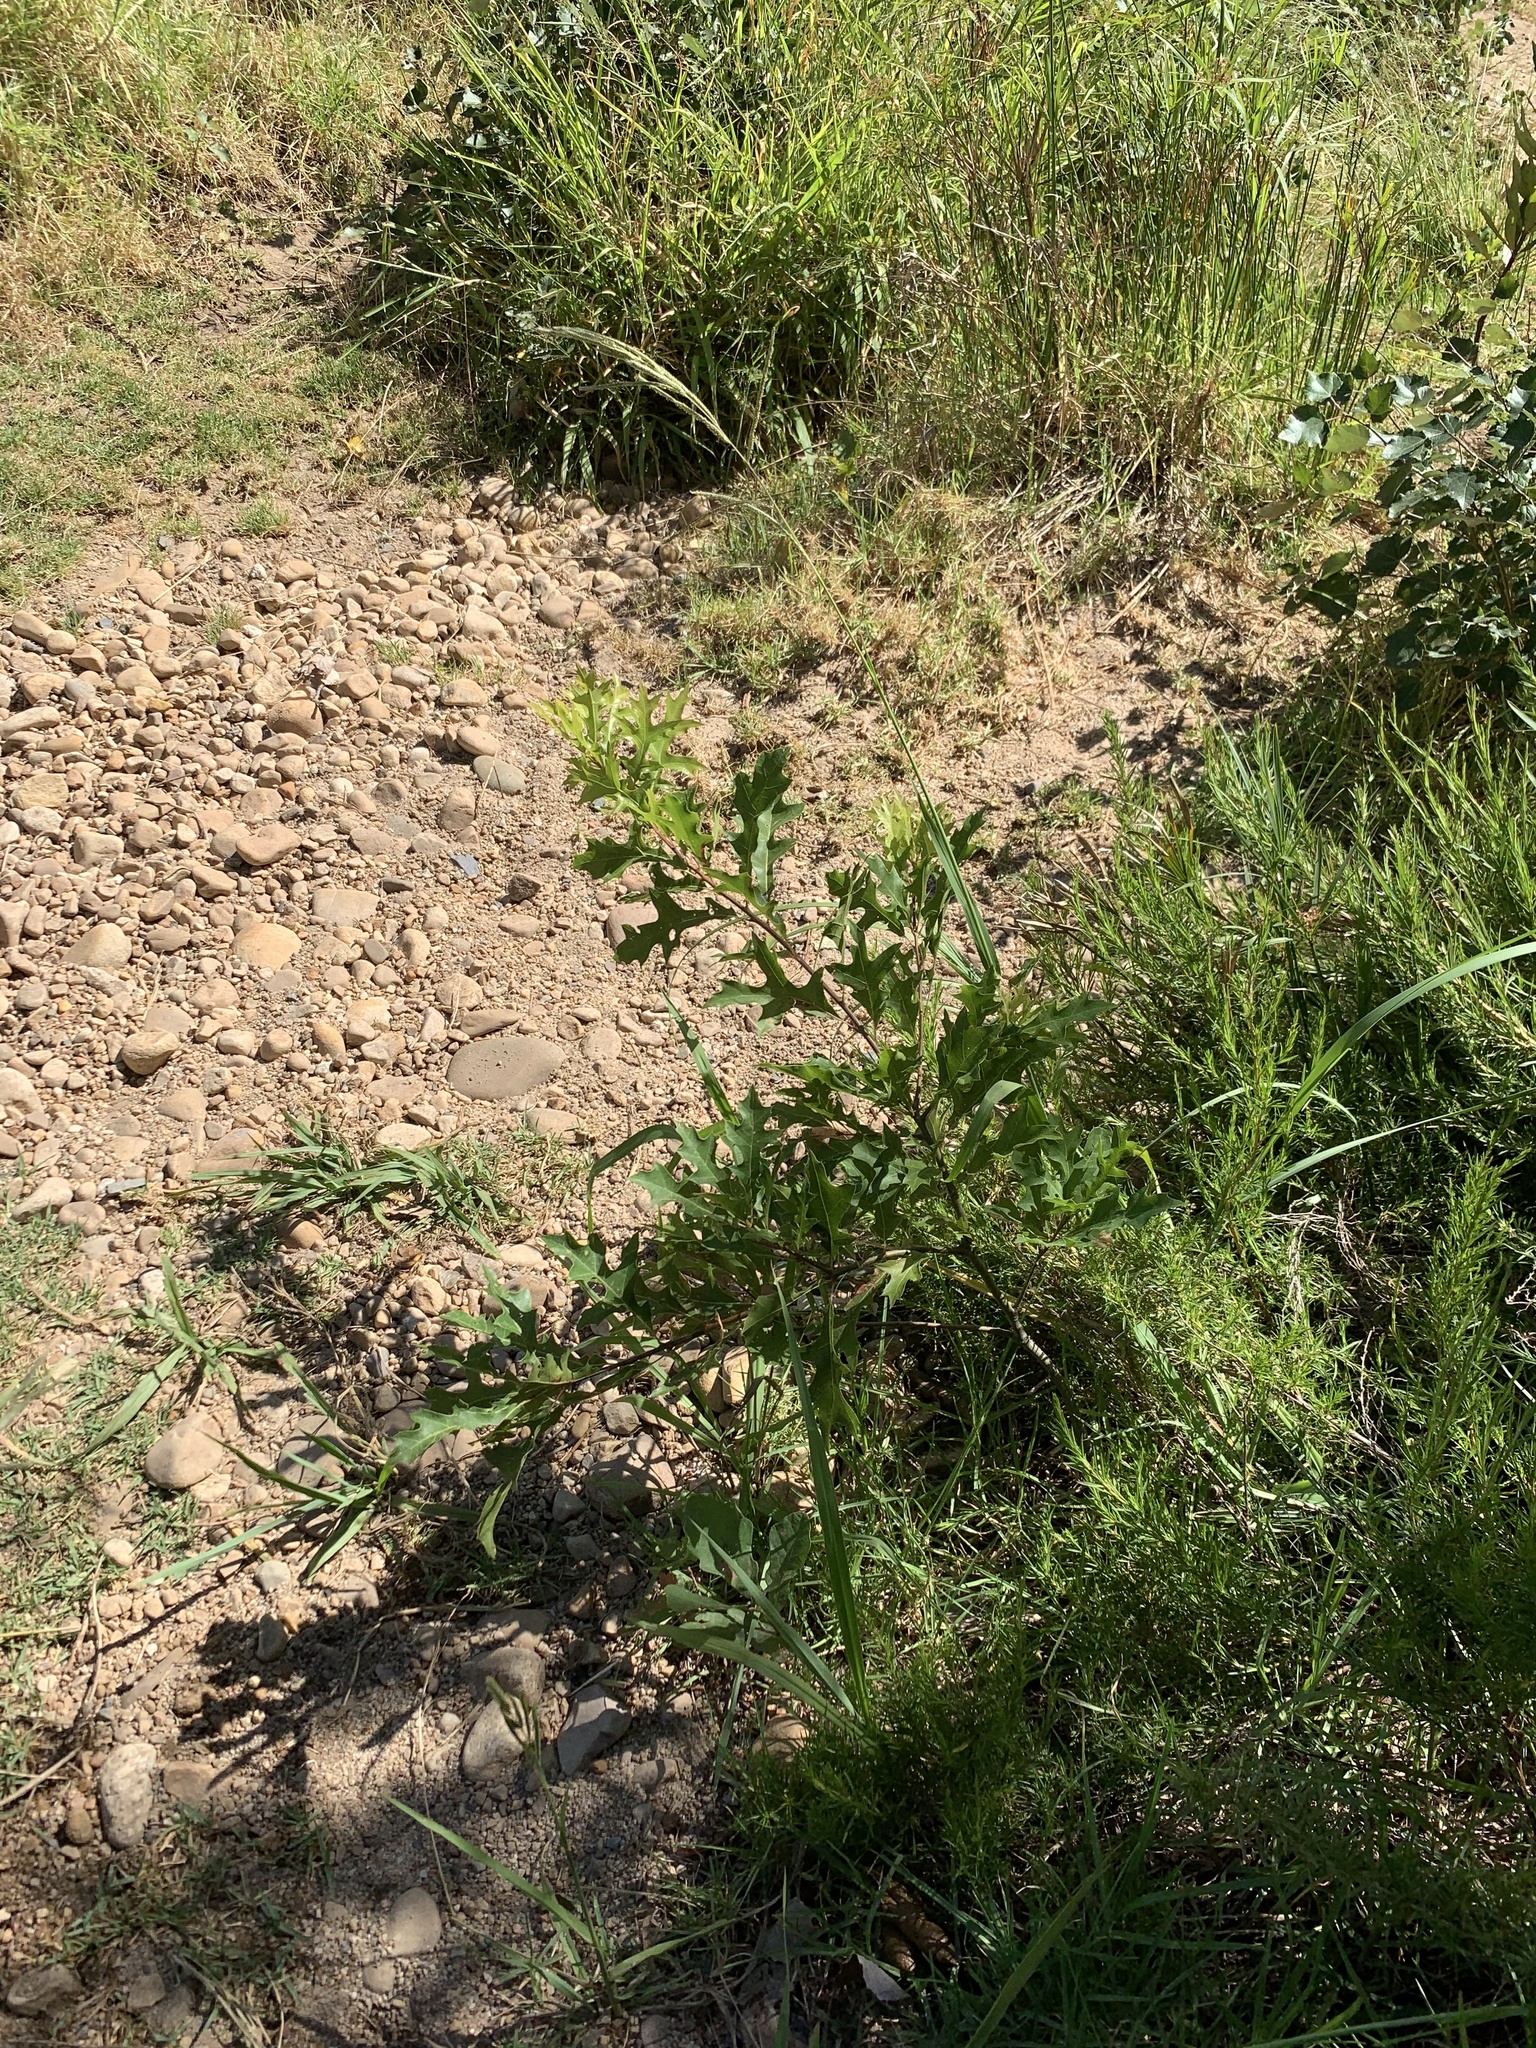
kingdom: Plantae
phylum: Tracheophyta
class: Magnoliopsida
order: Fagales
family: Fagaceae
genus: Quercus
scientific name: Quercus palustris
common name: Pin oak
